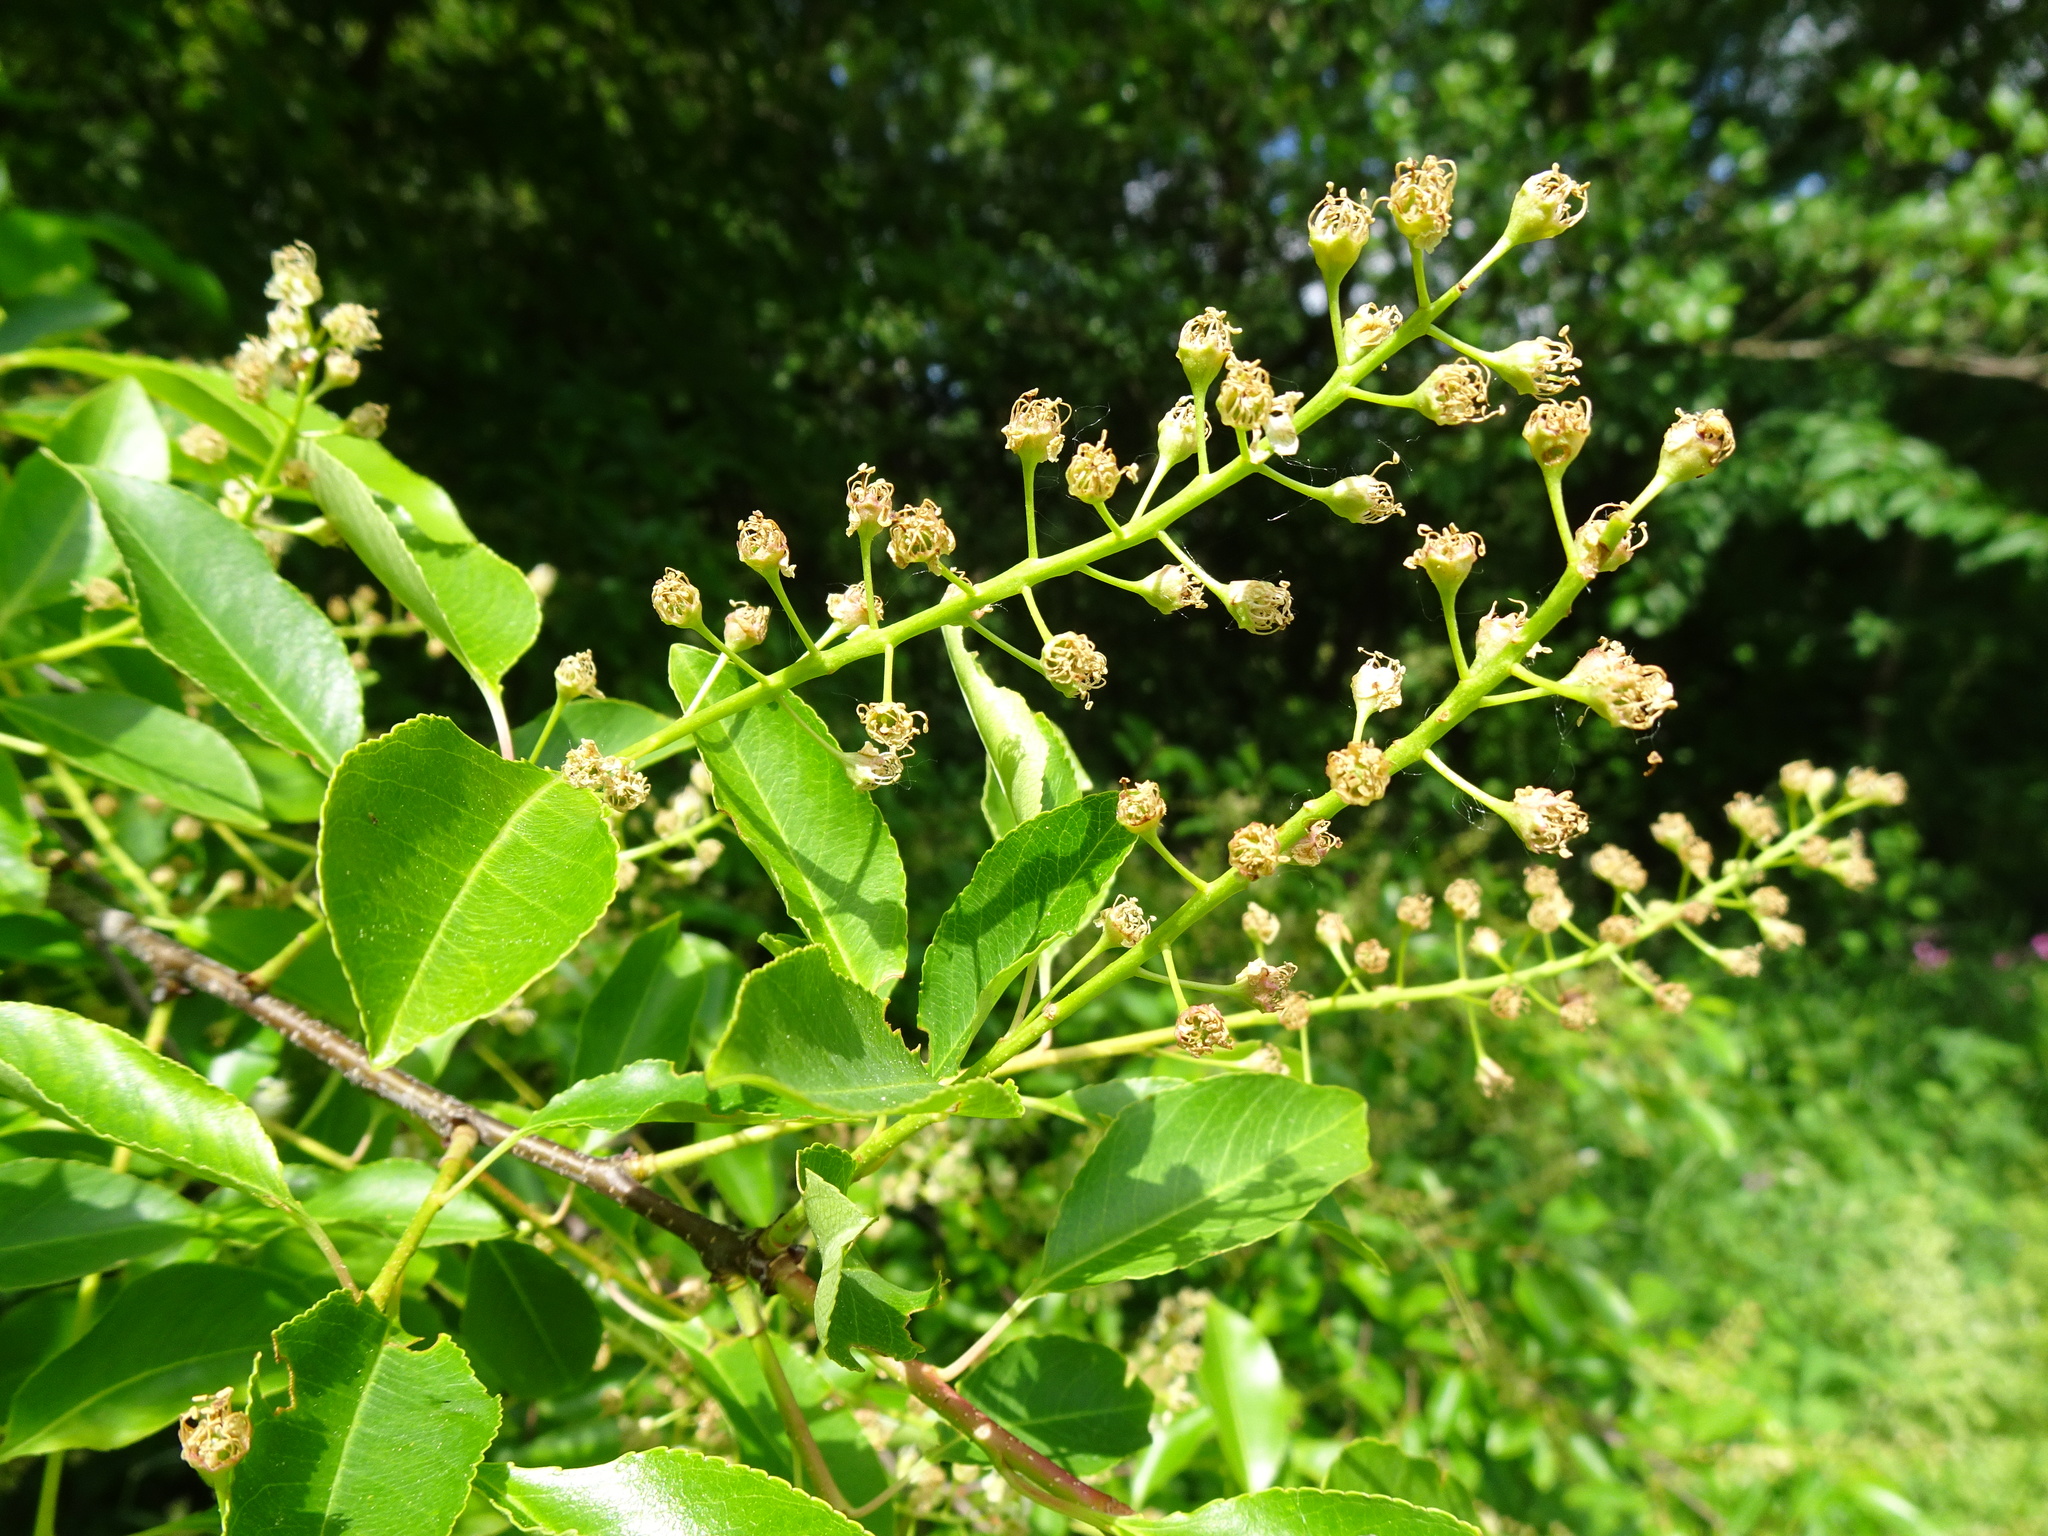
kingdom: Plantae
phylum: Tracheophyta
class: Magnoliopsida
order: Rosales
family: Rosaceae
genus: Prunus
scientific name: Prunus serotina
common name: Black cherry
